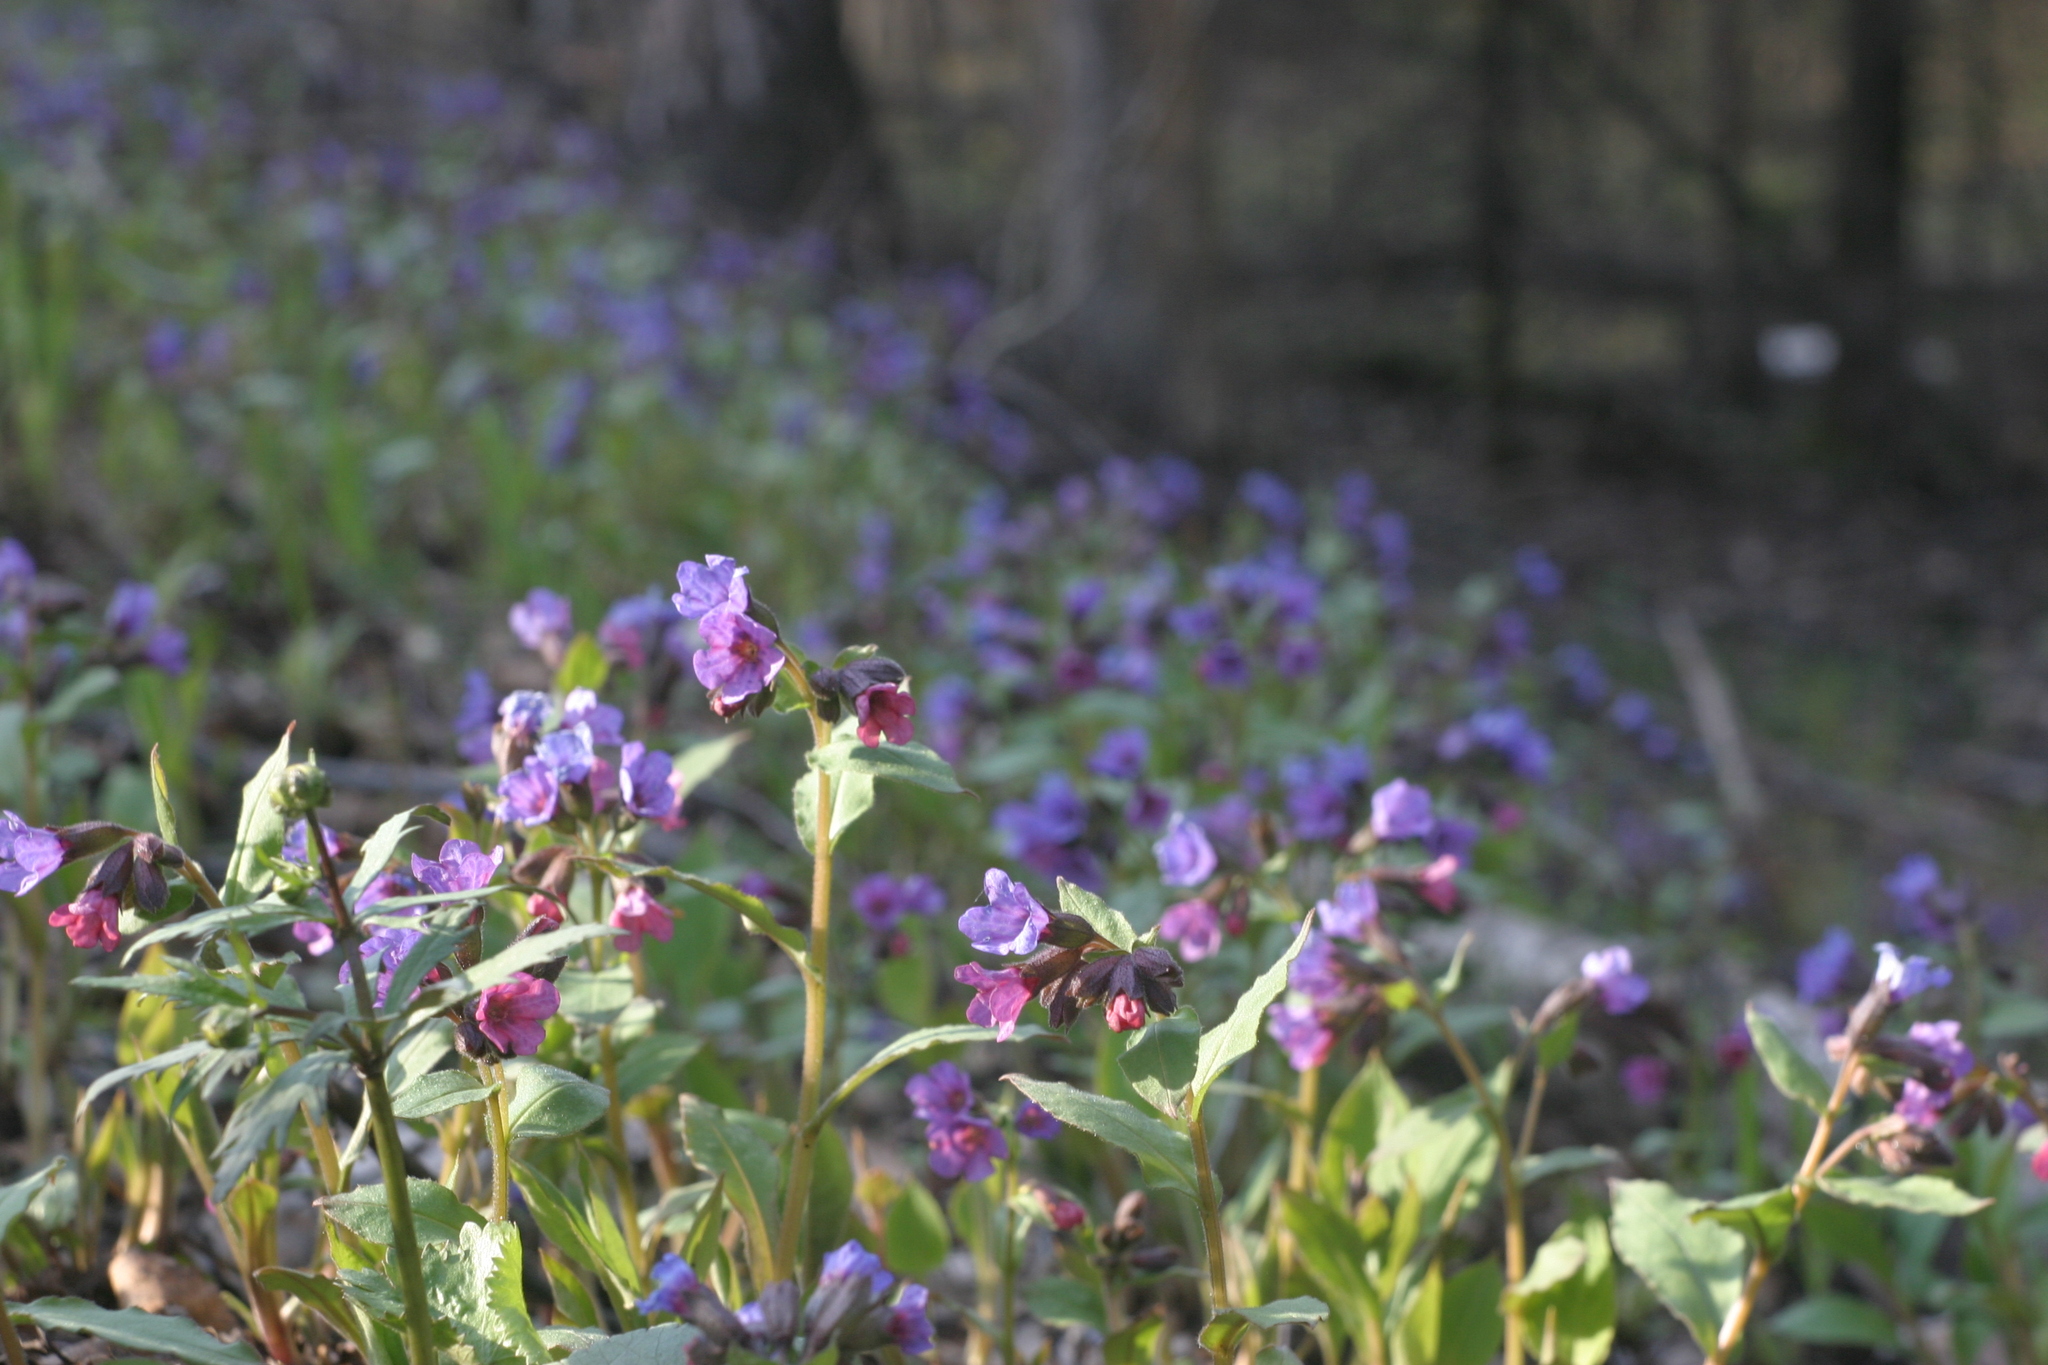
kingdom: Plantae
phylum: Tracheophyta
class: Magnoliopsida
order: Boraginales
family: Boraginaceae
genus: Pulmonaria
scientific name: Pulmonaria obscura
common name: Suffolk lungwort
